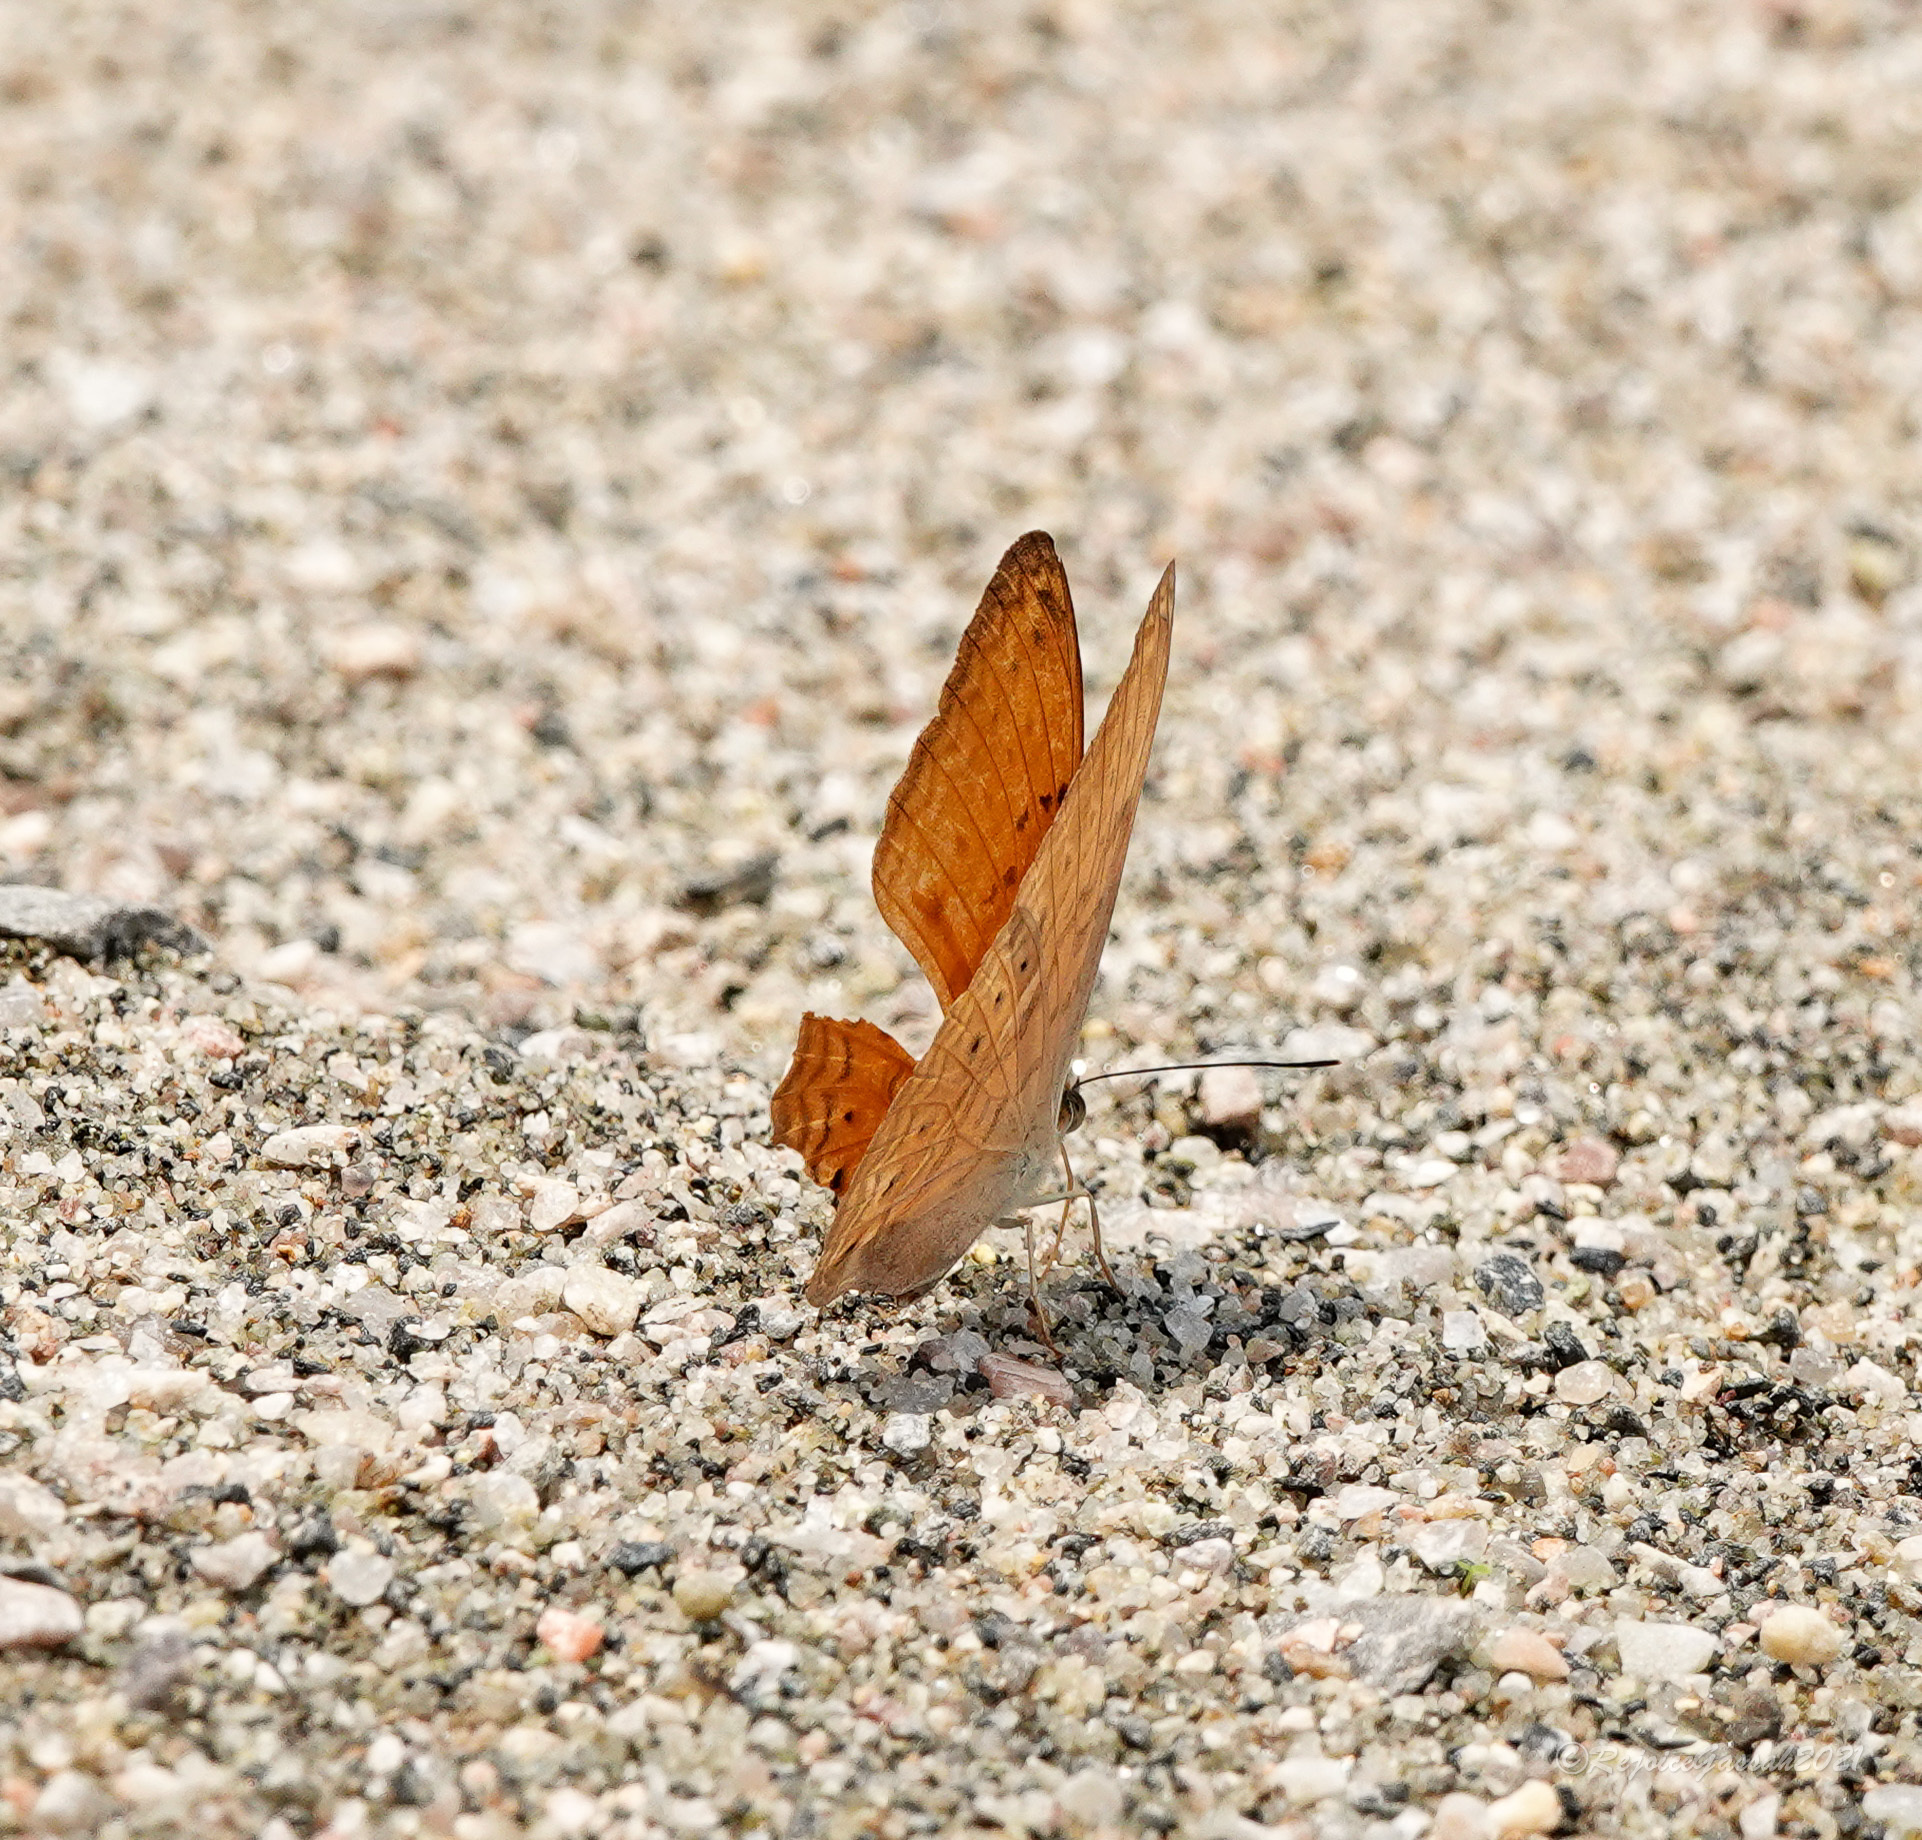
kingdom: Animalia
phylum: Arthropoda
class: Insecta
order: Lepidoptera
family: Nymphalidae
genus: Cirrochroa
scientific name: Cirrochroa tyche
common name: Common yeoman
